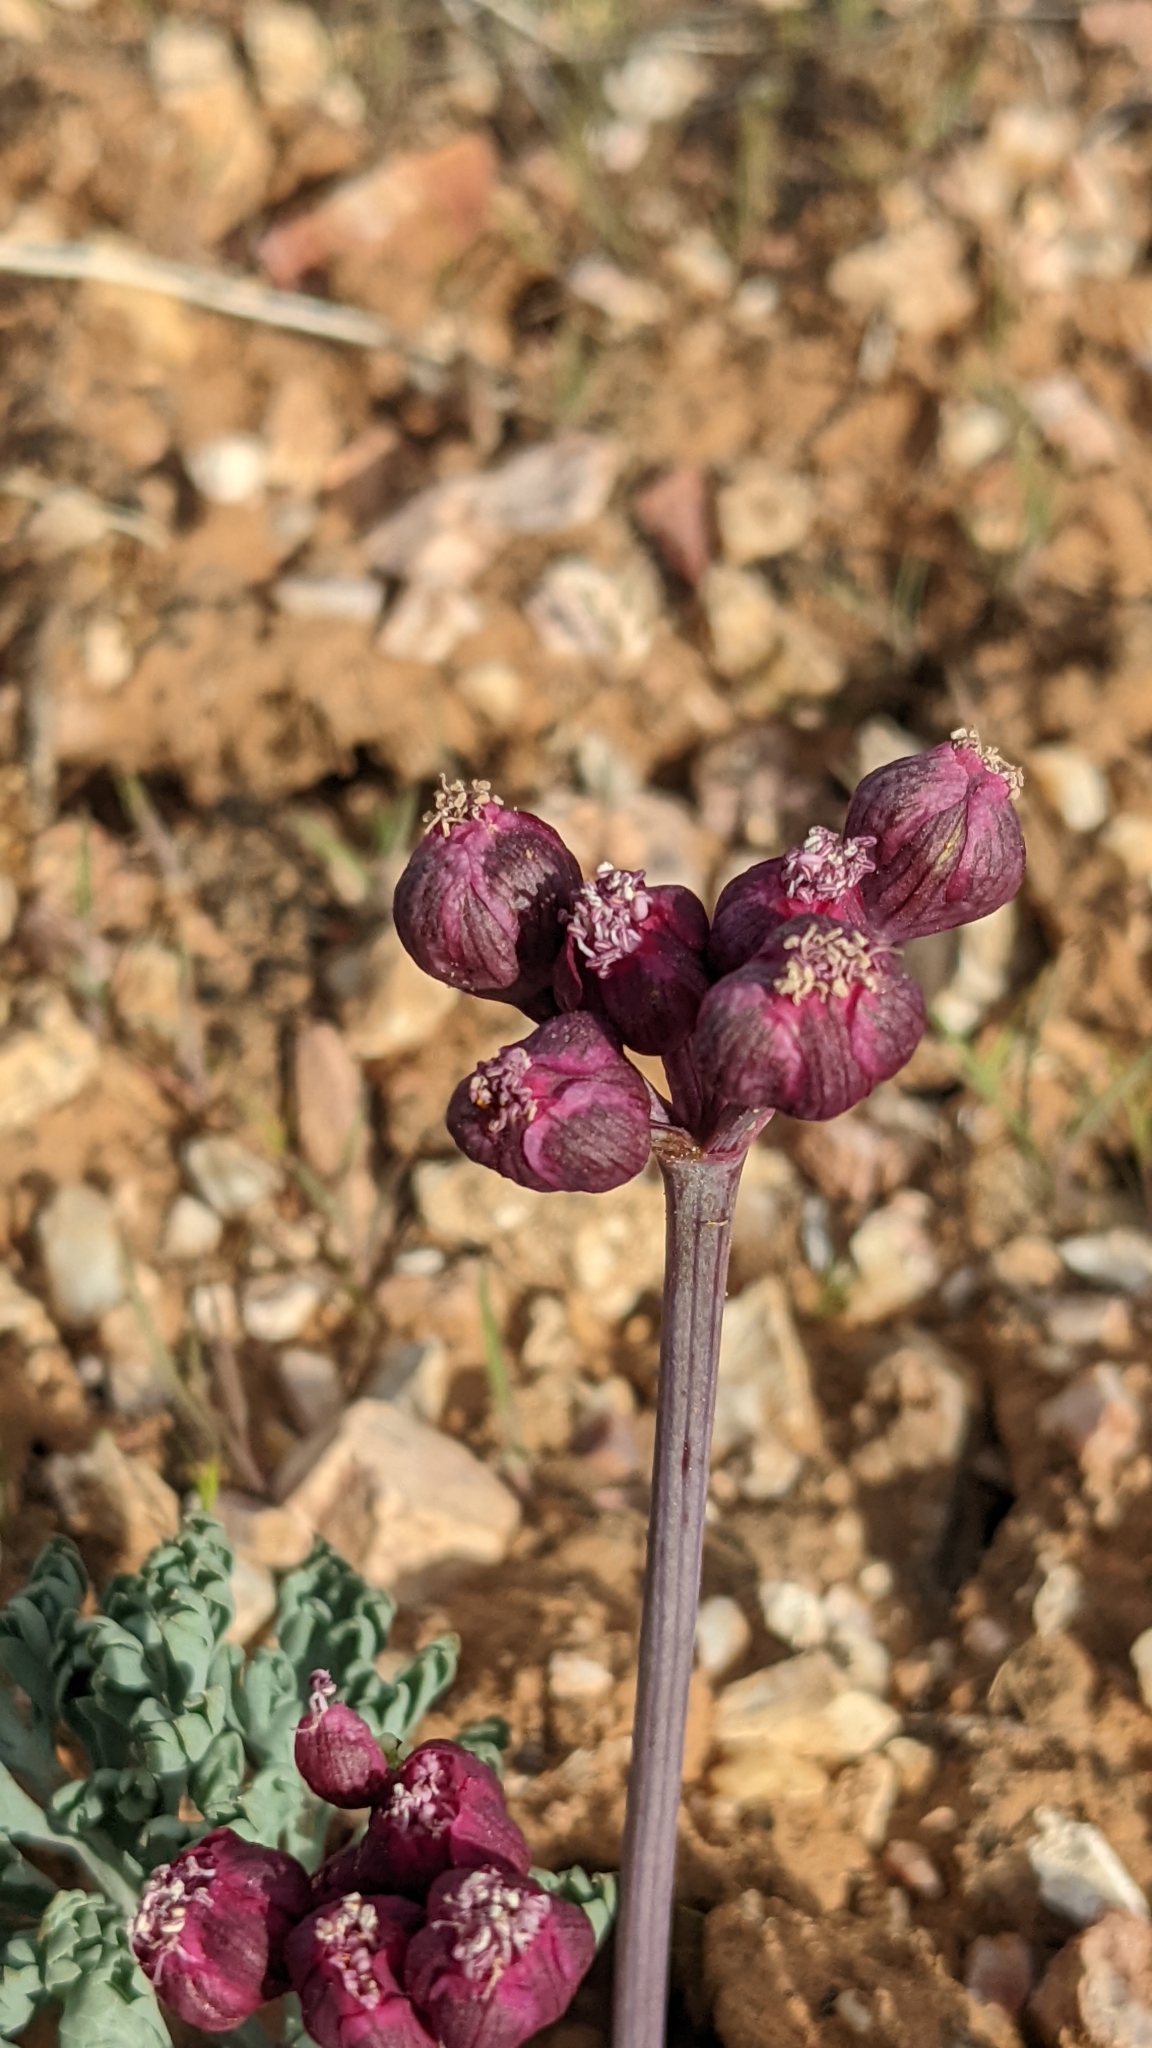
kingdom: Plantae
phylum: Tracheophyta
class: Magnoliopsida
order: Apiales
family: Apiaceae
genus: Vesper
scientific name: Vesper multinervatus
